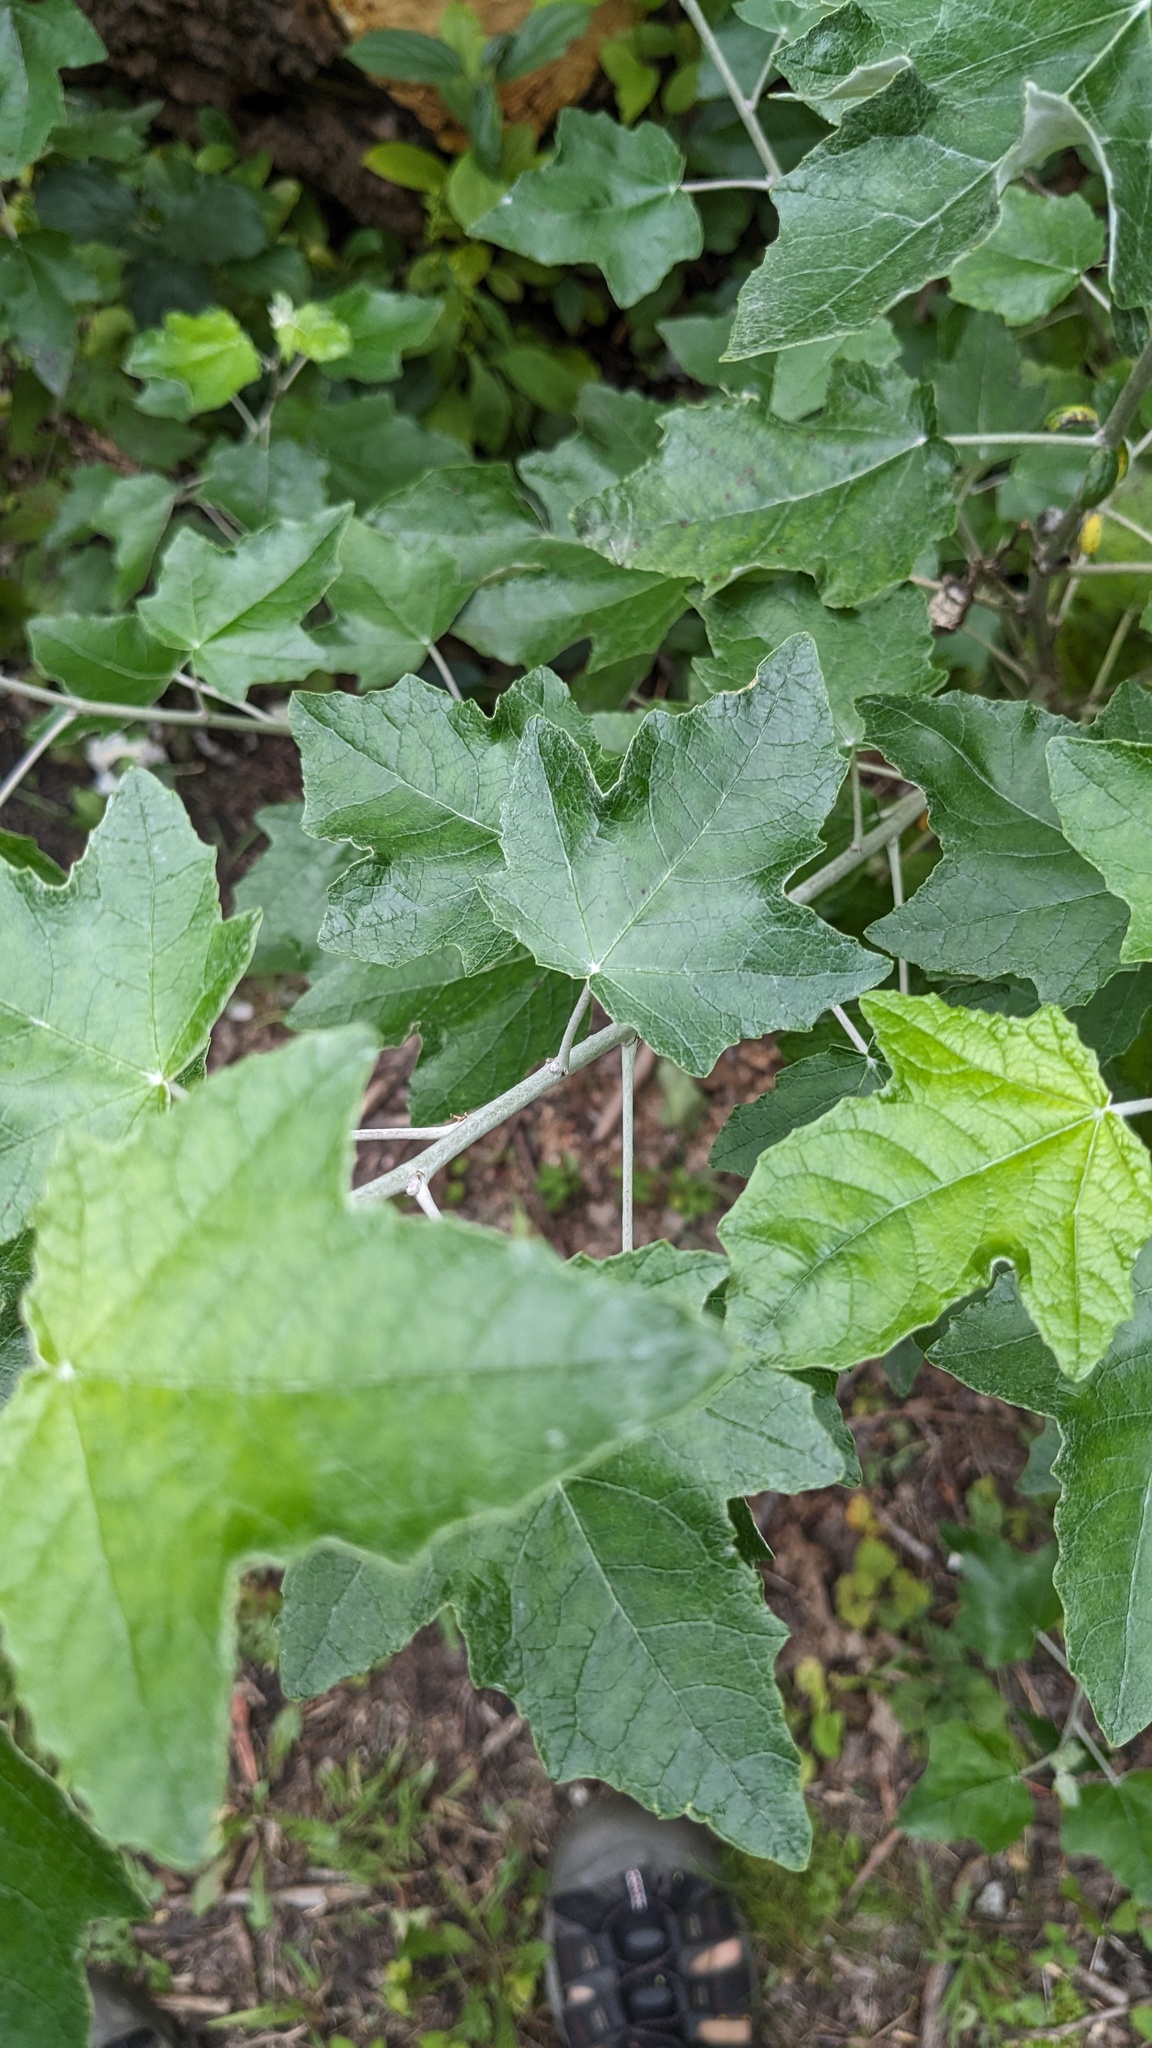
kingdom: Plantae
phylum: Tracheophyta
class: Magnoliopsida
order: Malpighiales
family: Salicaceae
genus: Populus
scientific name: Populus alba
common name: White poplar
